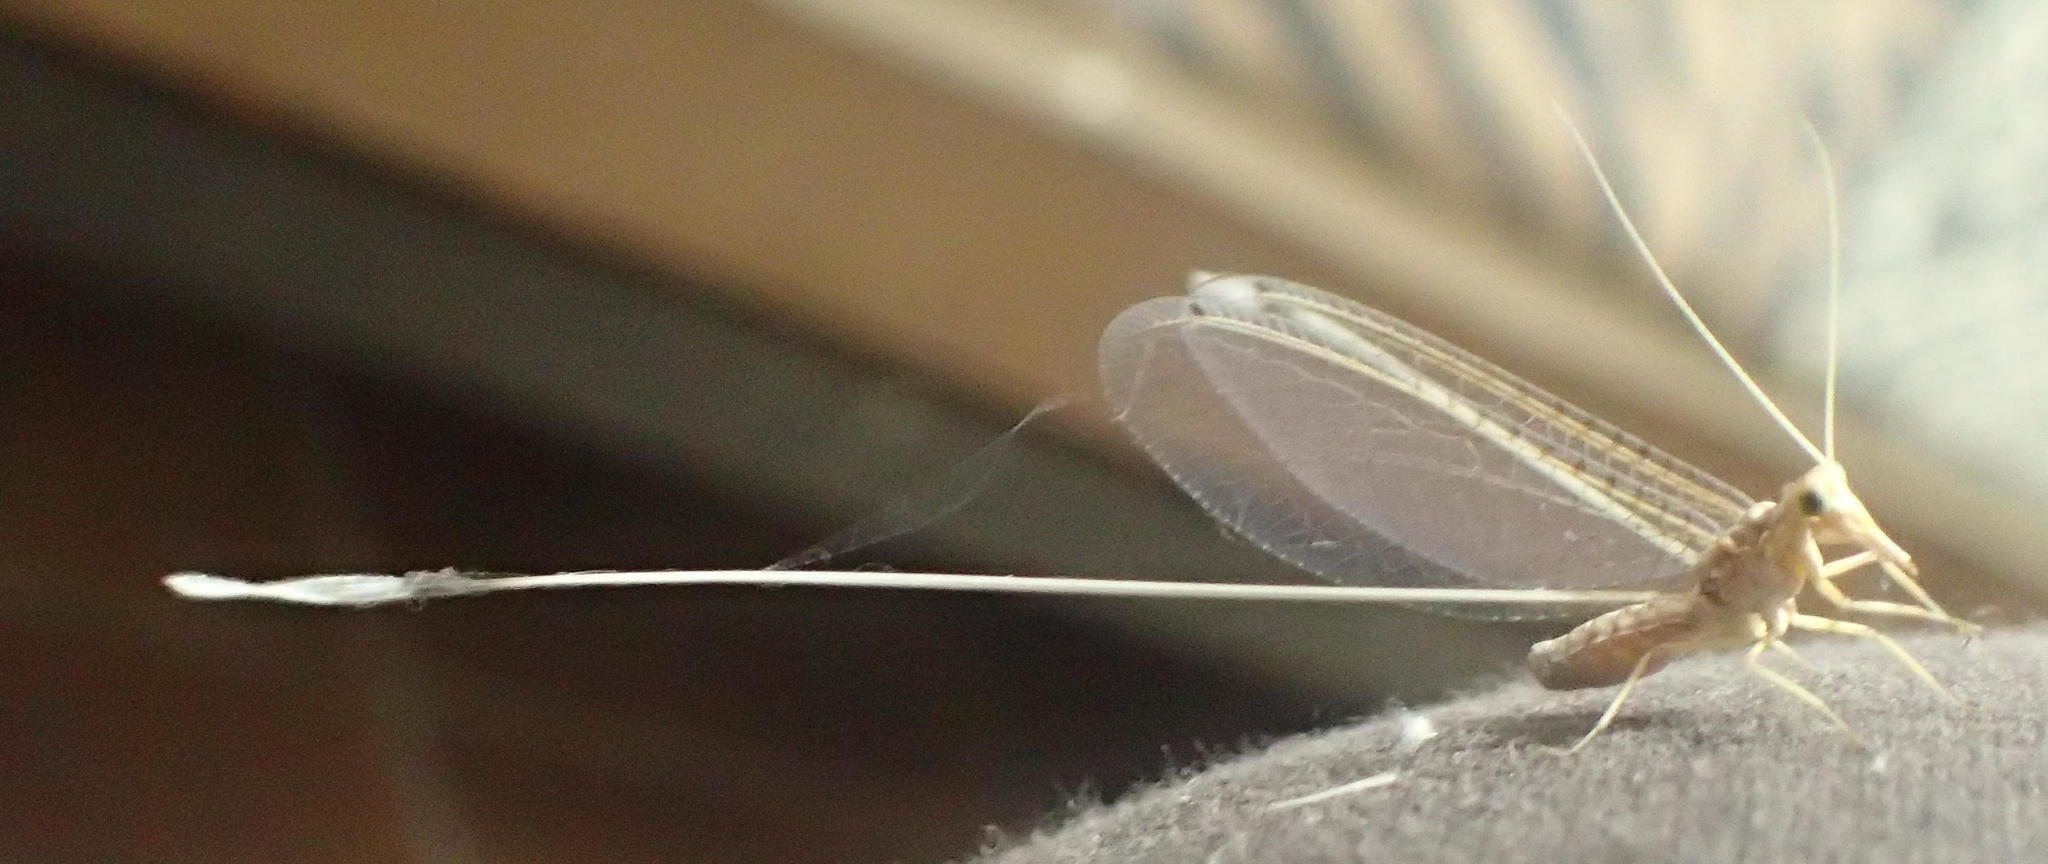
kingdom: Animalia
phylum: Arthropoda
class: Insecta
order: Neuroptera
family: Nemopteridae
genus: Semirhynchia
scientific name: Semirhynchia brincki
